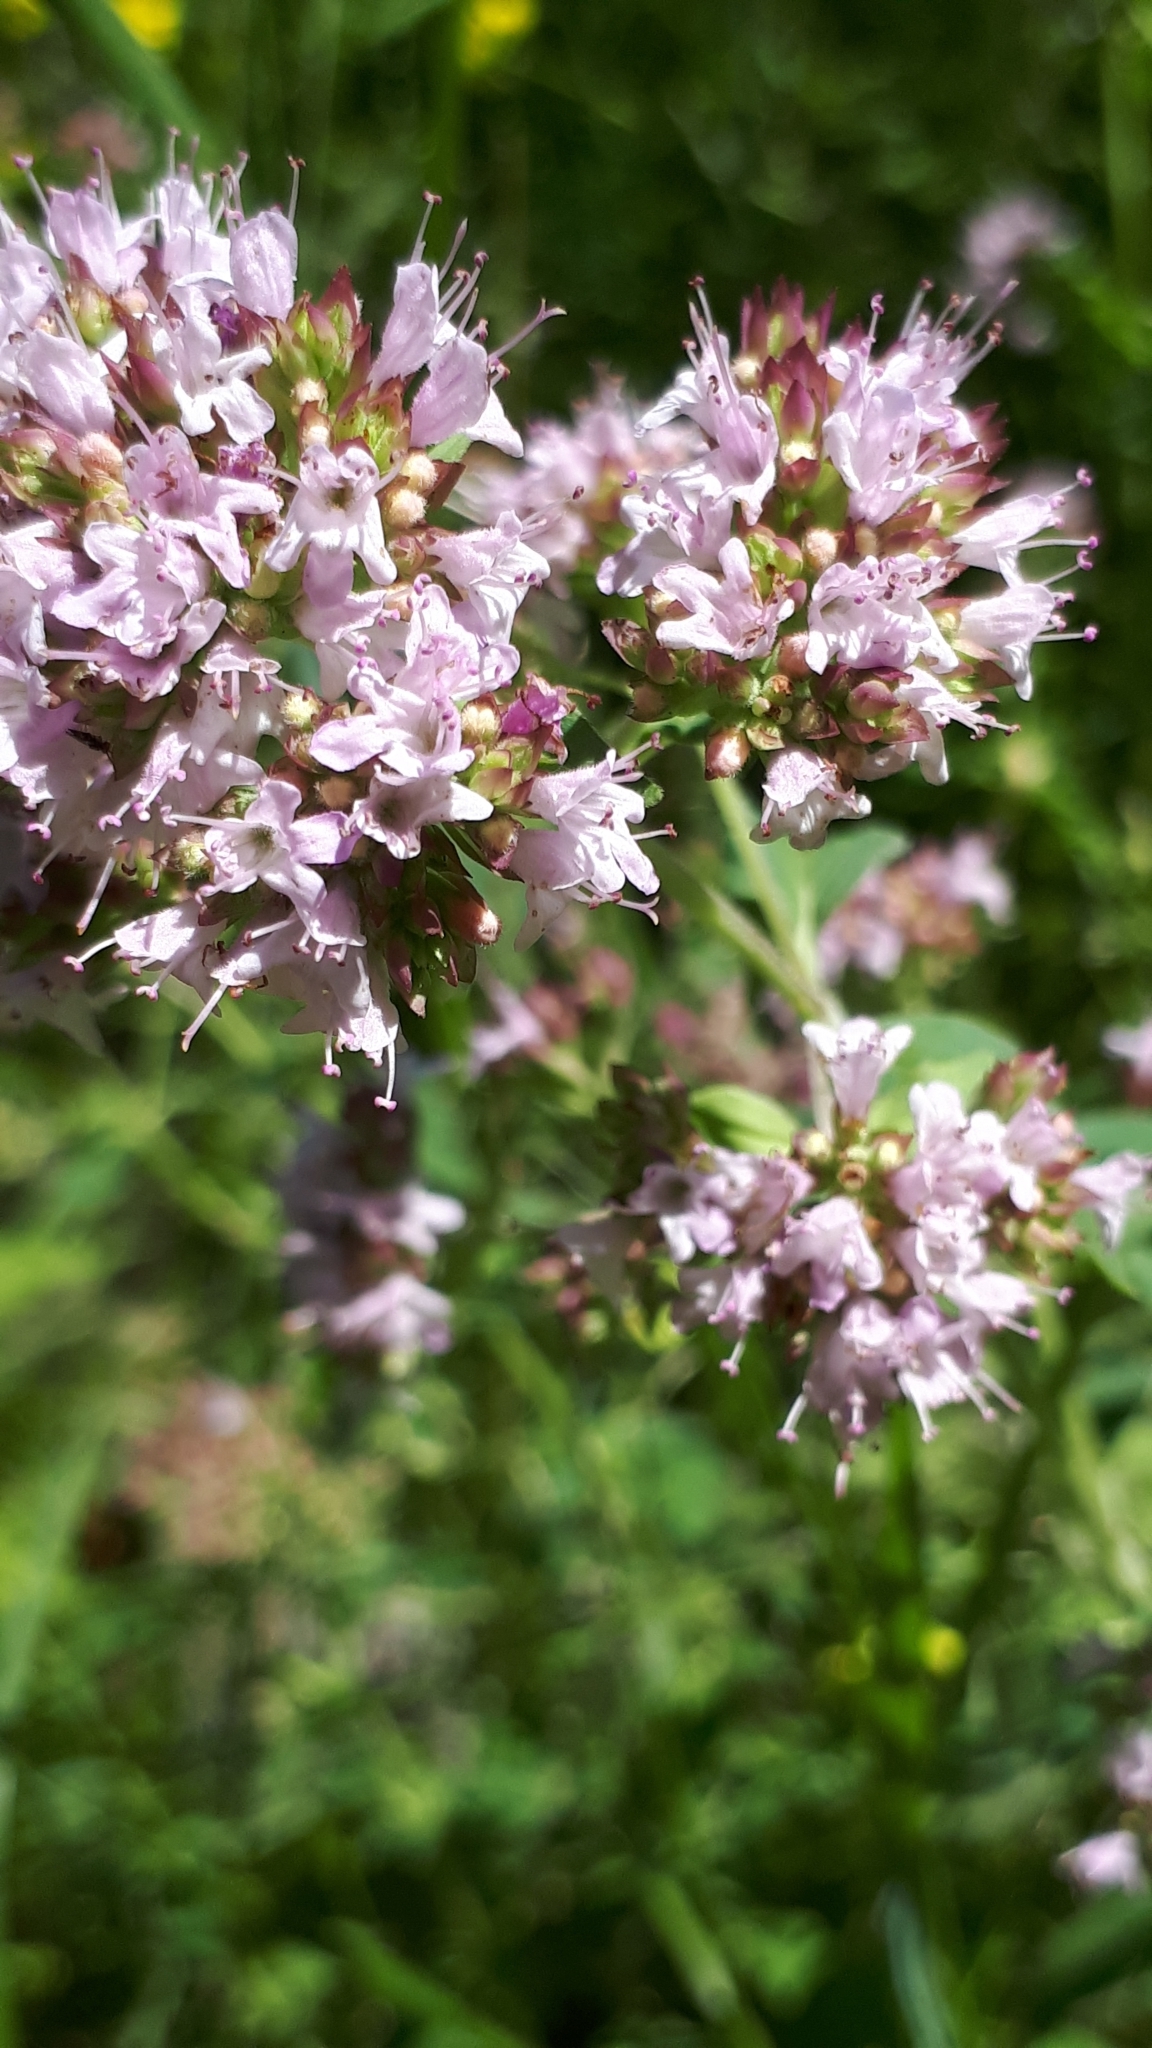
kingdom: Plantae
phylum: Tracheophyta
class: Magnoliopsida
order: Lamiales
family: Lamiaceae
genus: Origanum
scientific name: Origanum vulgare
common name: Wild marjoram
